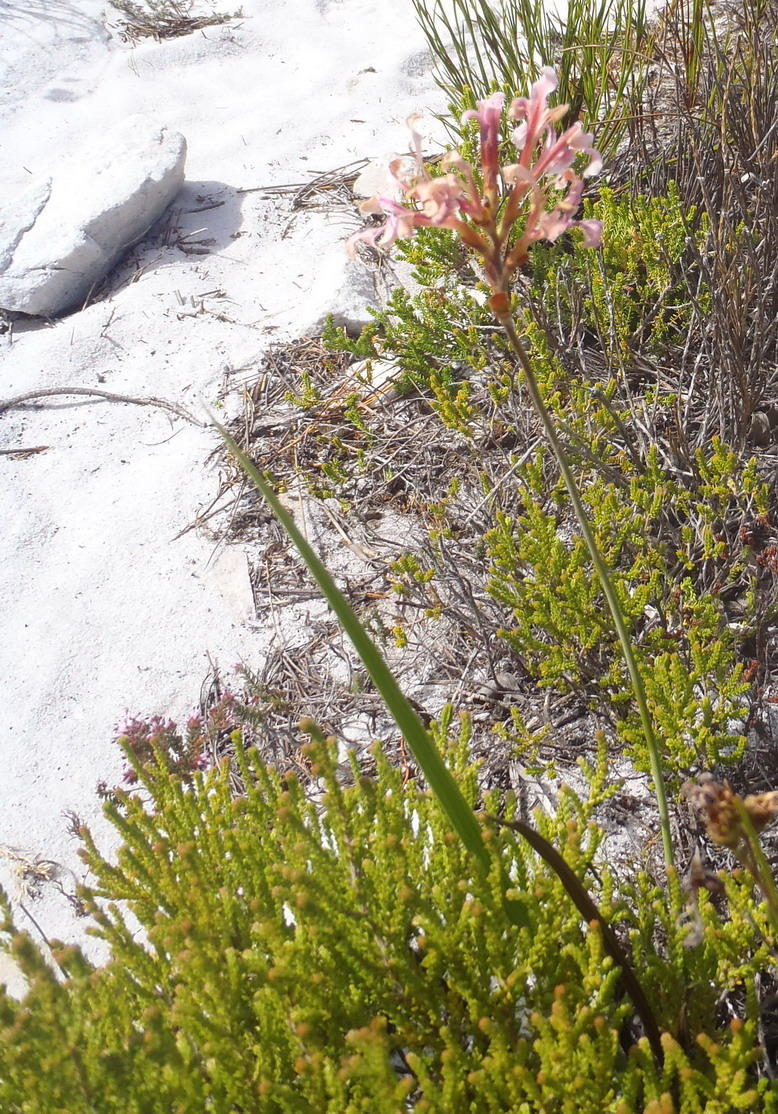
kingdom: Plantae
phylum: Tracheophyta
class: Liliopsida
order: Asparagales
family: Iridaceae
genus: Tritoniopsis
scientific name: Tritoniopsis dodii
